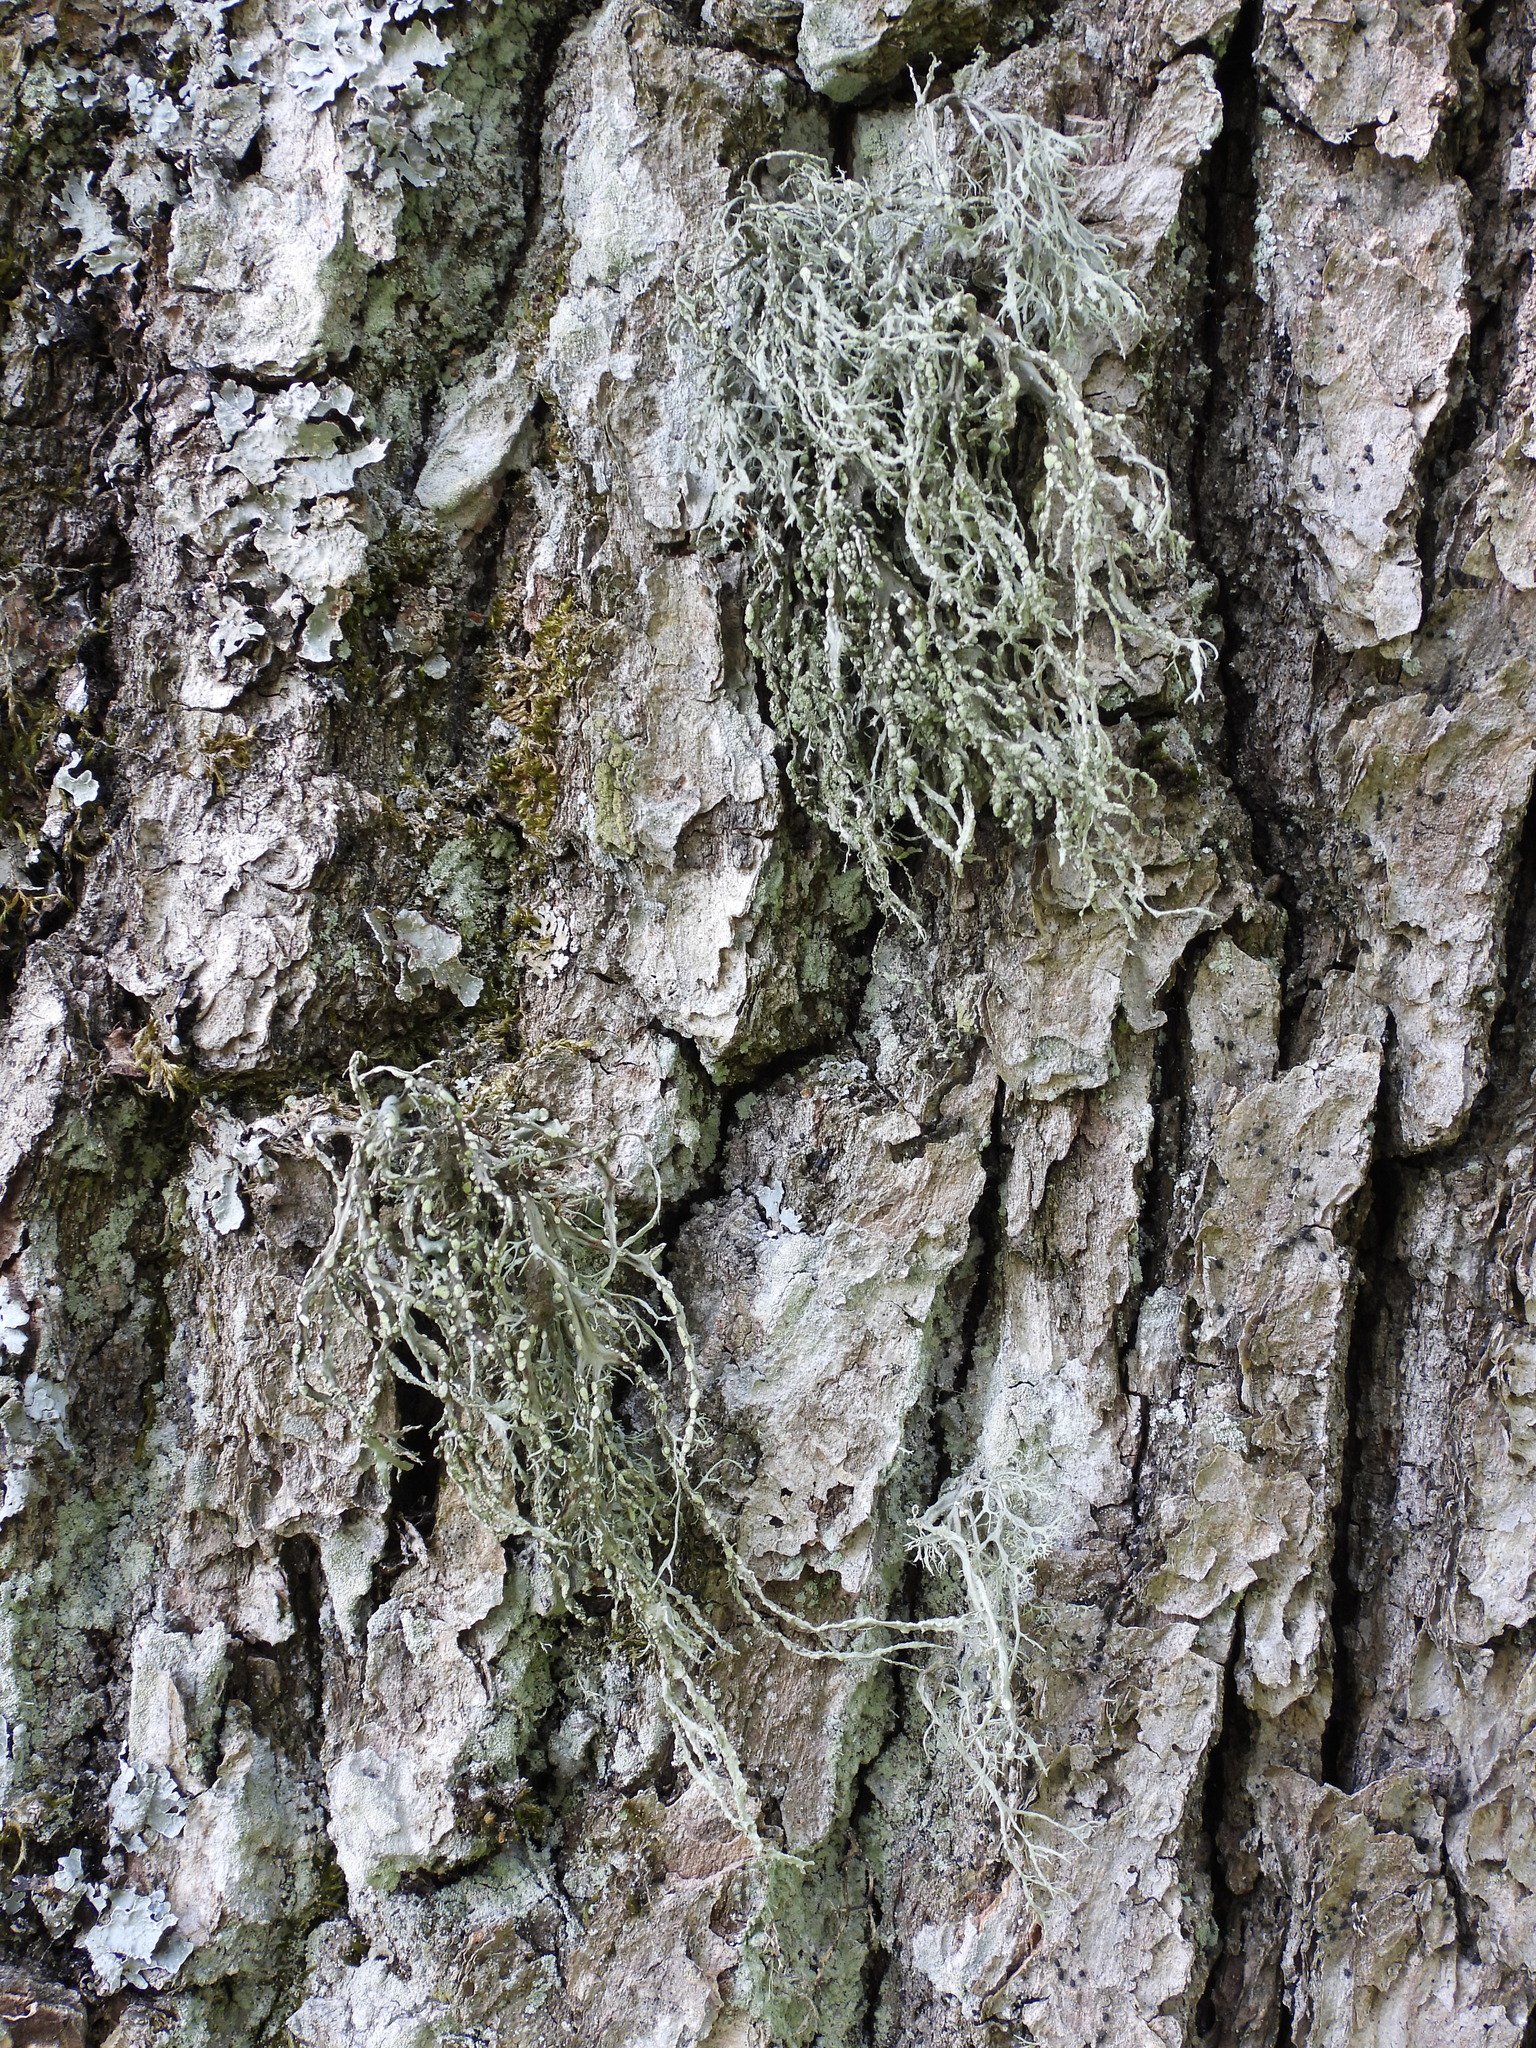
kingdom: Fungi
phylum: Ascomycota
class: Lecanoromycetes
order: Lecanorales
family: Ramalinaceae
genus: Ramalina
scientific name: Ramalina farinacea
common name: Farinose cartilage lichen
